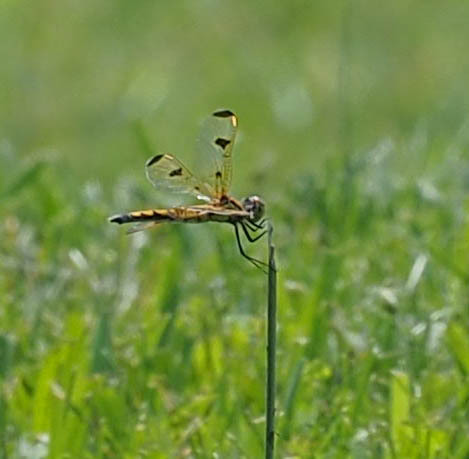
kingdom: Animalia
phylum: Arthropoda
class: Insecta
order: Odonata
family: Libellulidae
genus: Libellula
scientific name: Libellula semifasciata
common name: Painted skimmer
